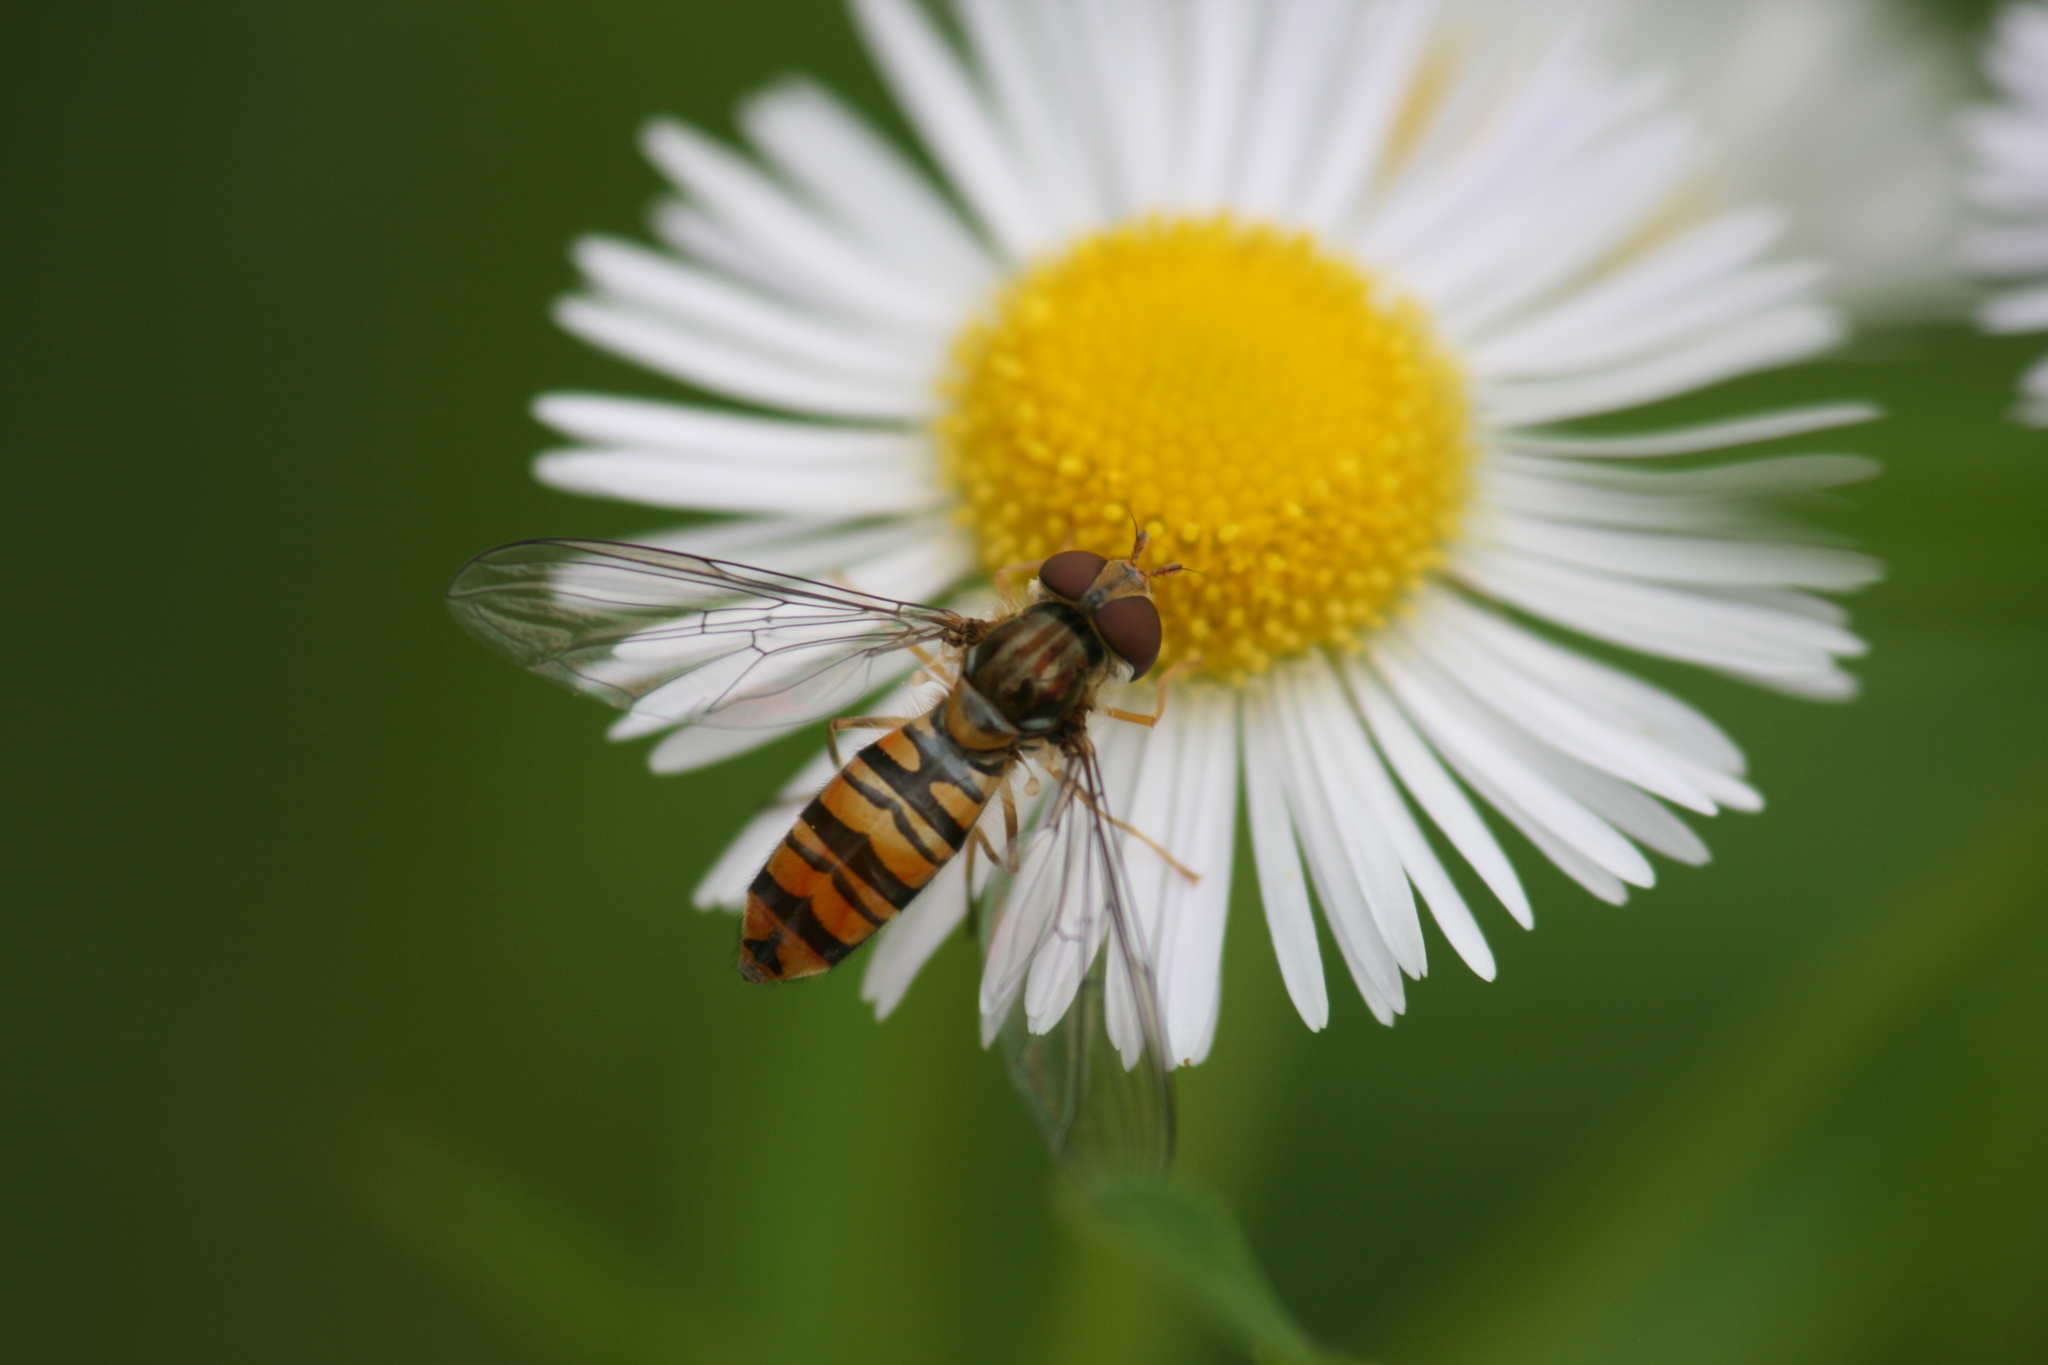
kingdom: Animalia
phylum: Arthropoda
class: Insecta
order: Diptera
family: Syrphidae
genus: Episyrphus
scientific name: Episyrphus balteatus
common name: Marmalade hoverfly
